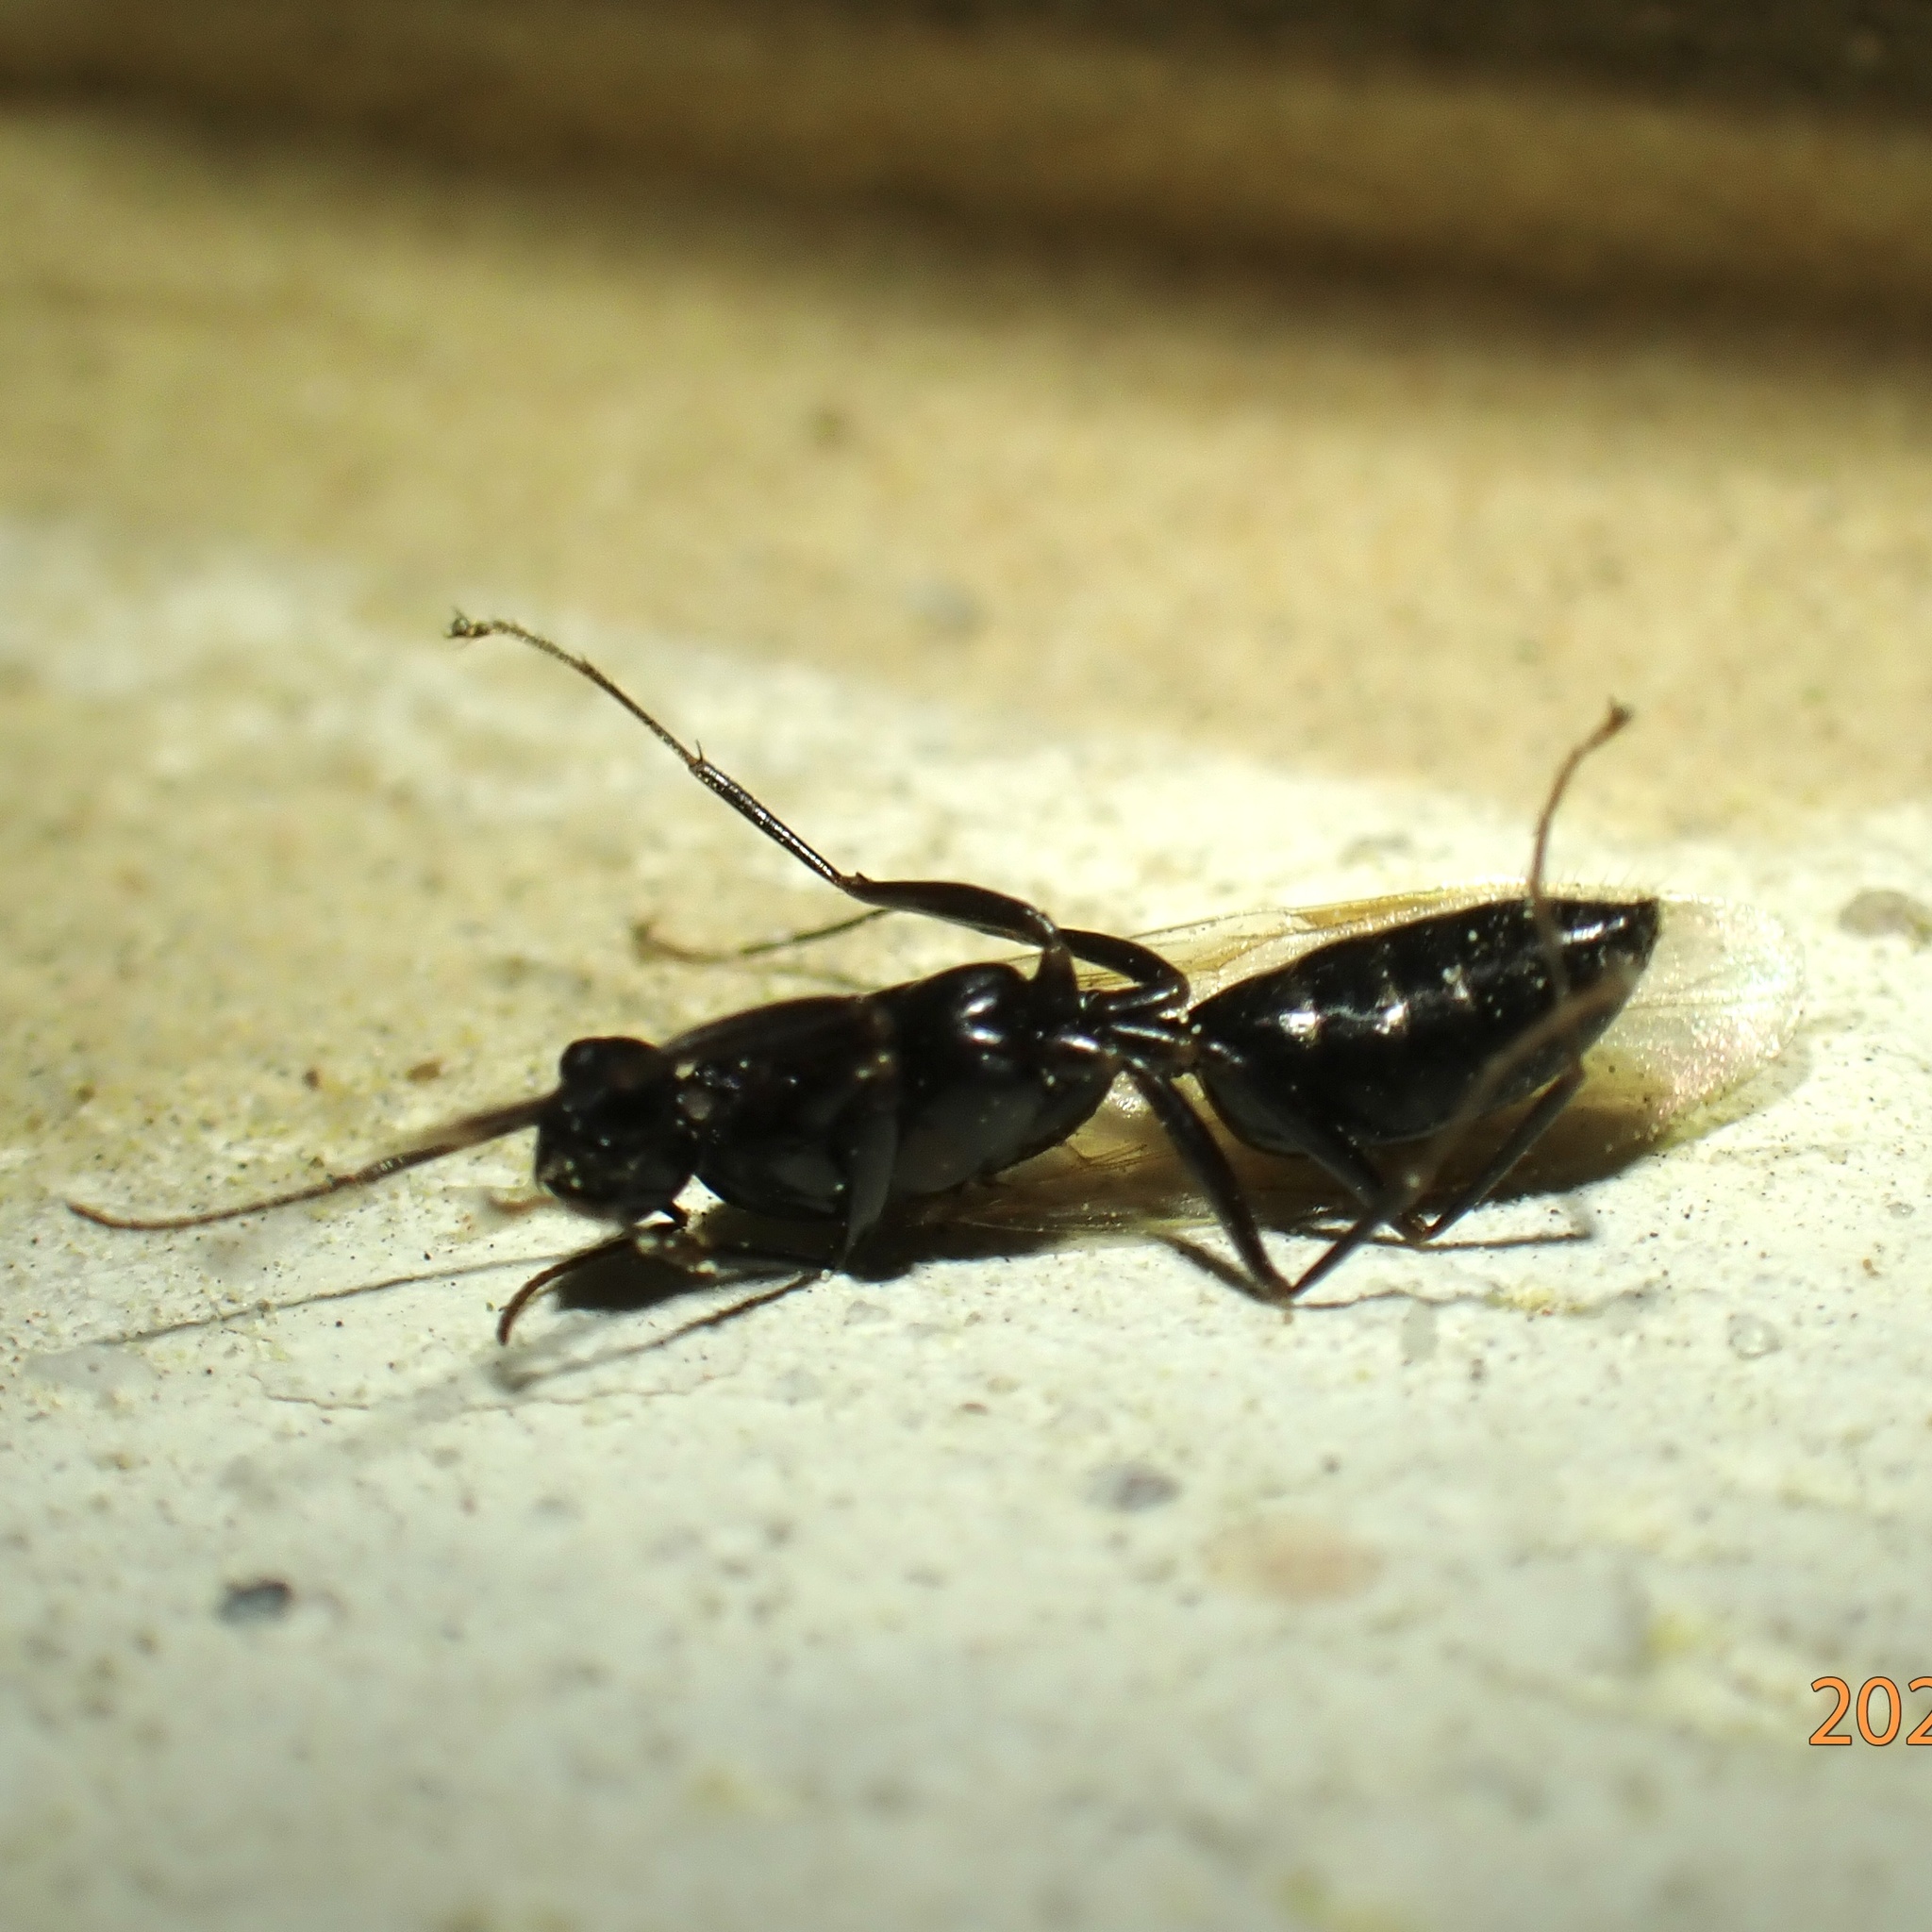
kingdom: Animalia
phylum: Arthropoda
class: Insecta
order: Hymenoptera
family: Formicidae
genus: Camponotus
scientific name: Camponotus pennsylvanicus
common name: Black carpenter ant
